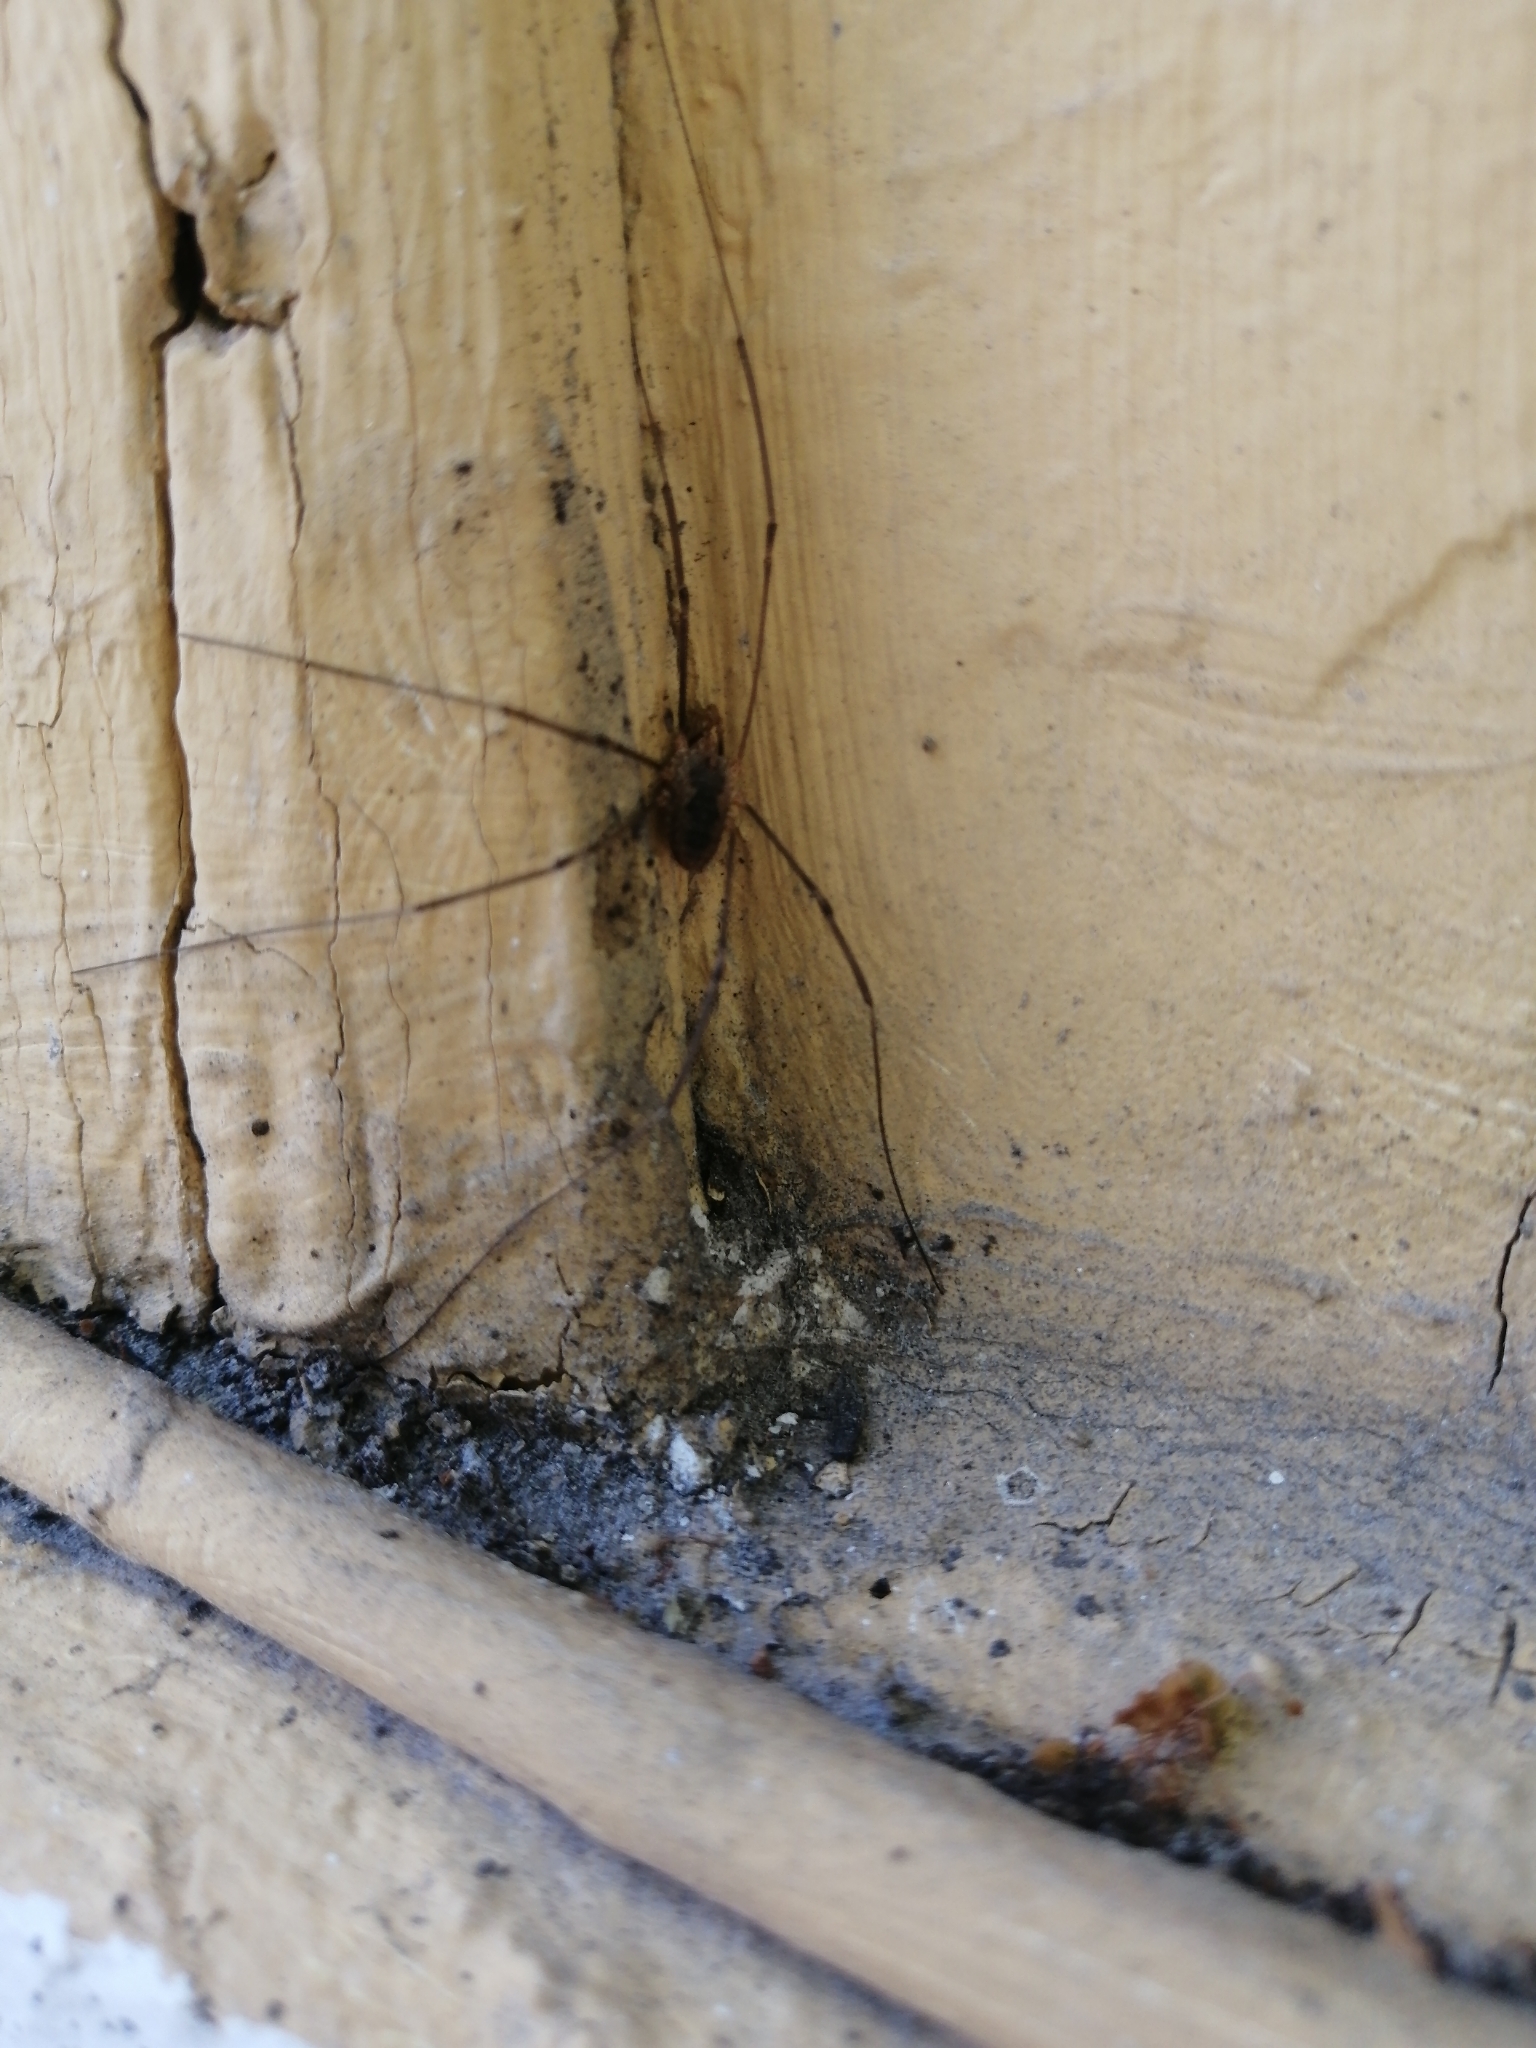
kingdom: Animalia
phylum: Arthropoda
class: Arachnida
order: Opiliones
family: Phalangiidae
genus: Phalangium
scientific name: Phalangium opilio
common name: Daddy longleg
